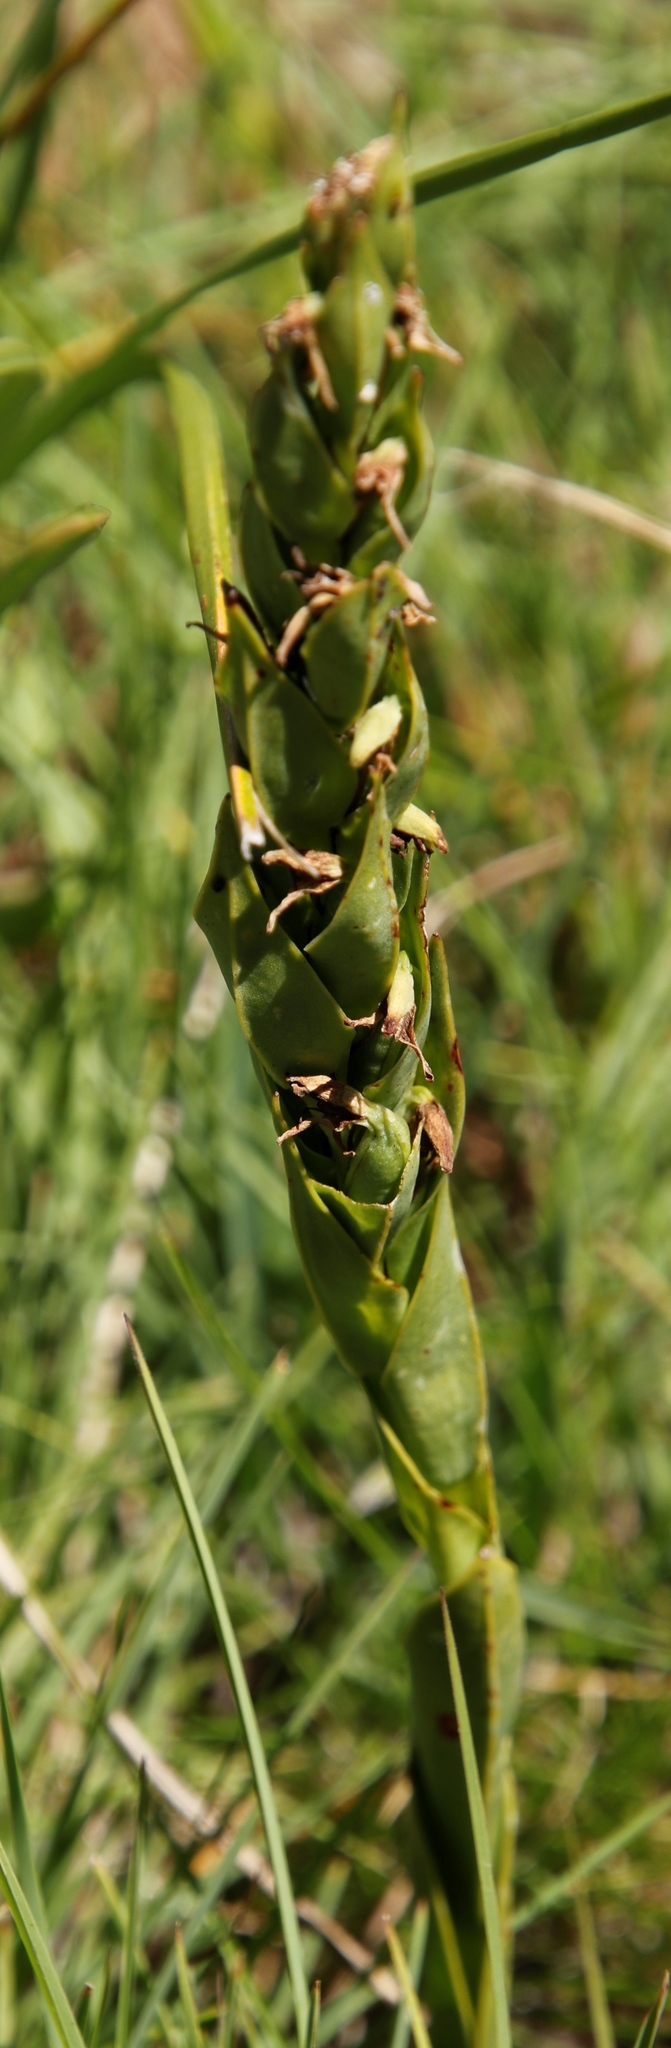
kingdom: Plantae
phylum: Tracheophyta
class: Liliopsida
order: Asparagales
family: Orchidaceae
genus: Habenaria
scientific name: Habenaria laevigata
